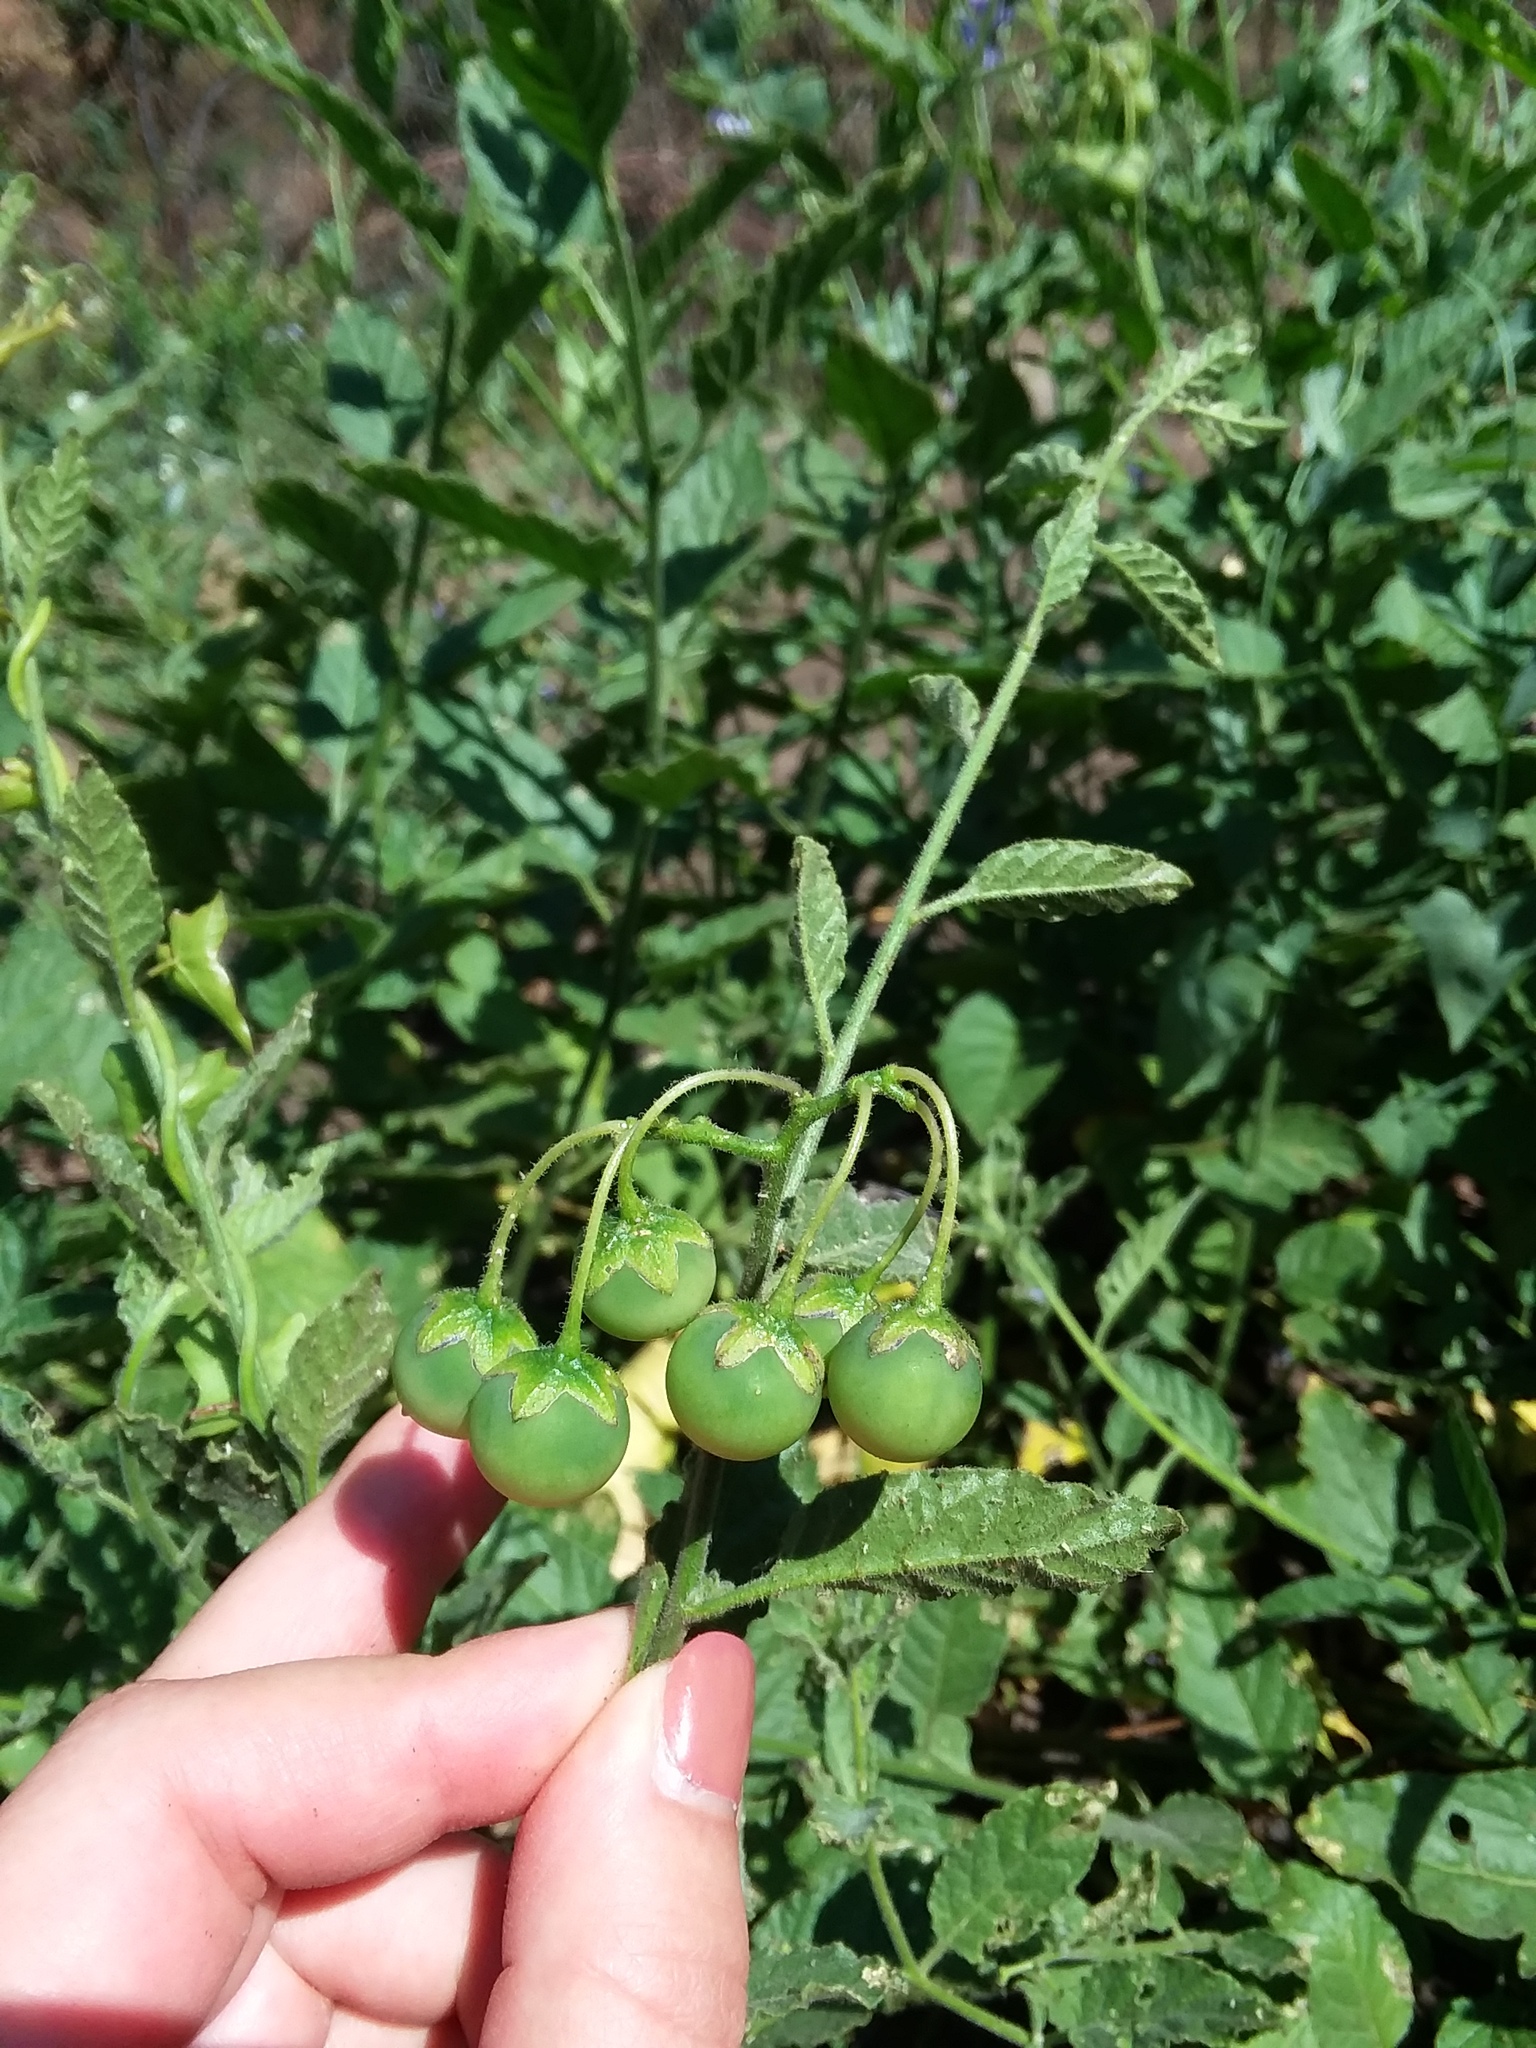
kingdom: Plantae
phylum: Tracheophyta
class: Magnoliopsida
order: Solanales
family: Solanaceae
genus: Solanum
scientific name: Solanum umbelliferum
